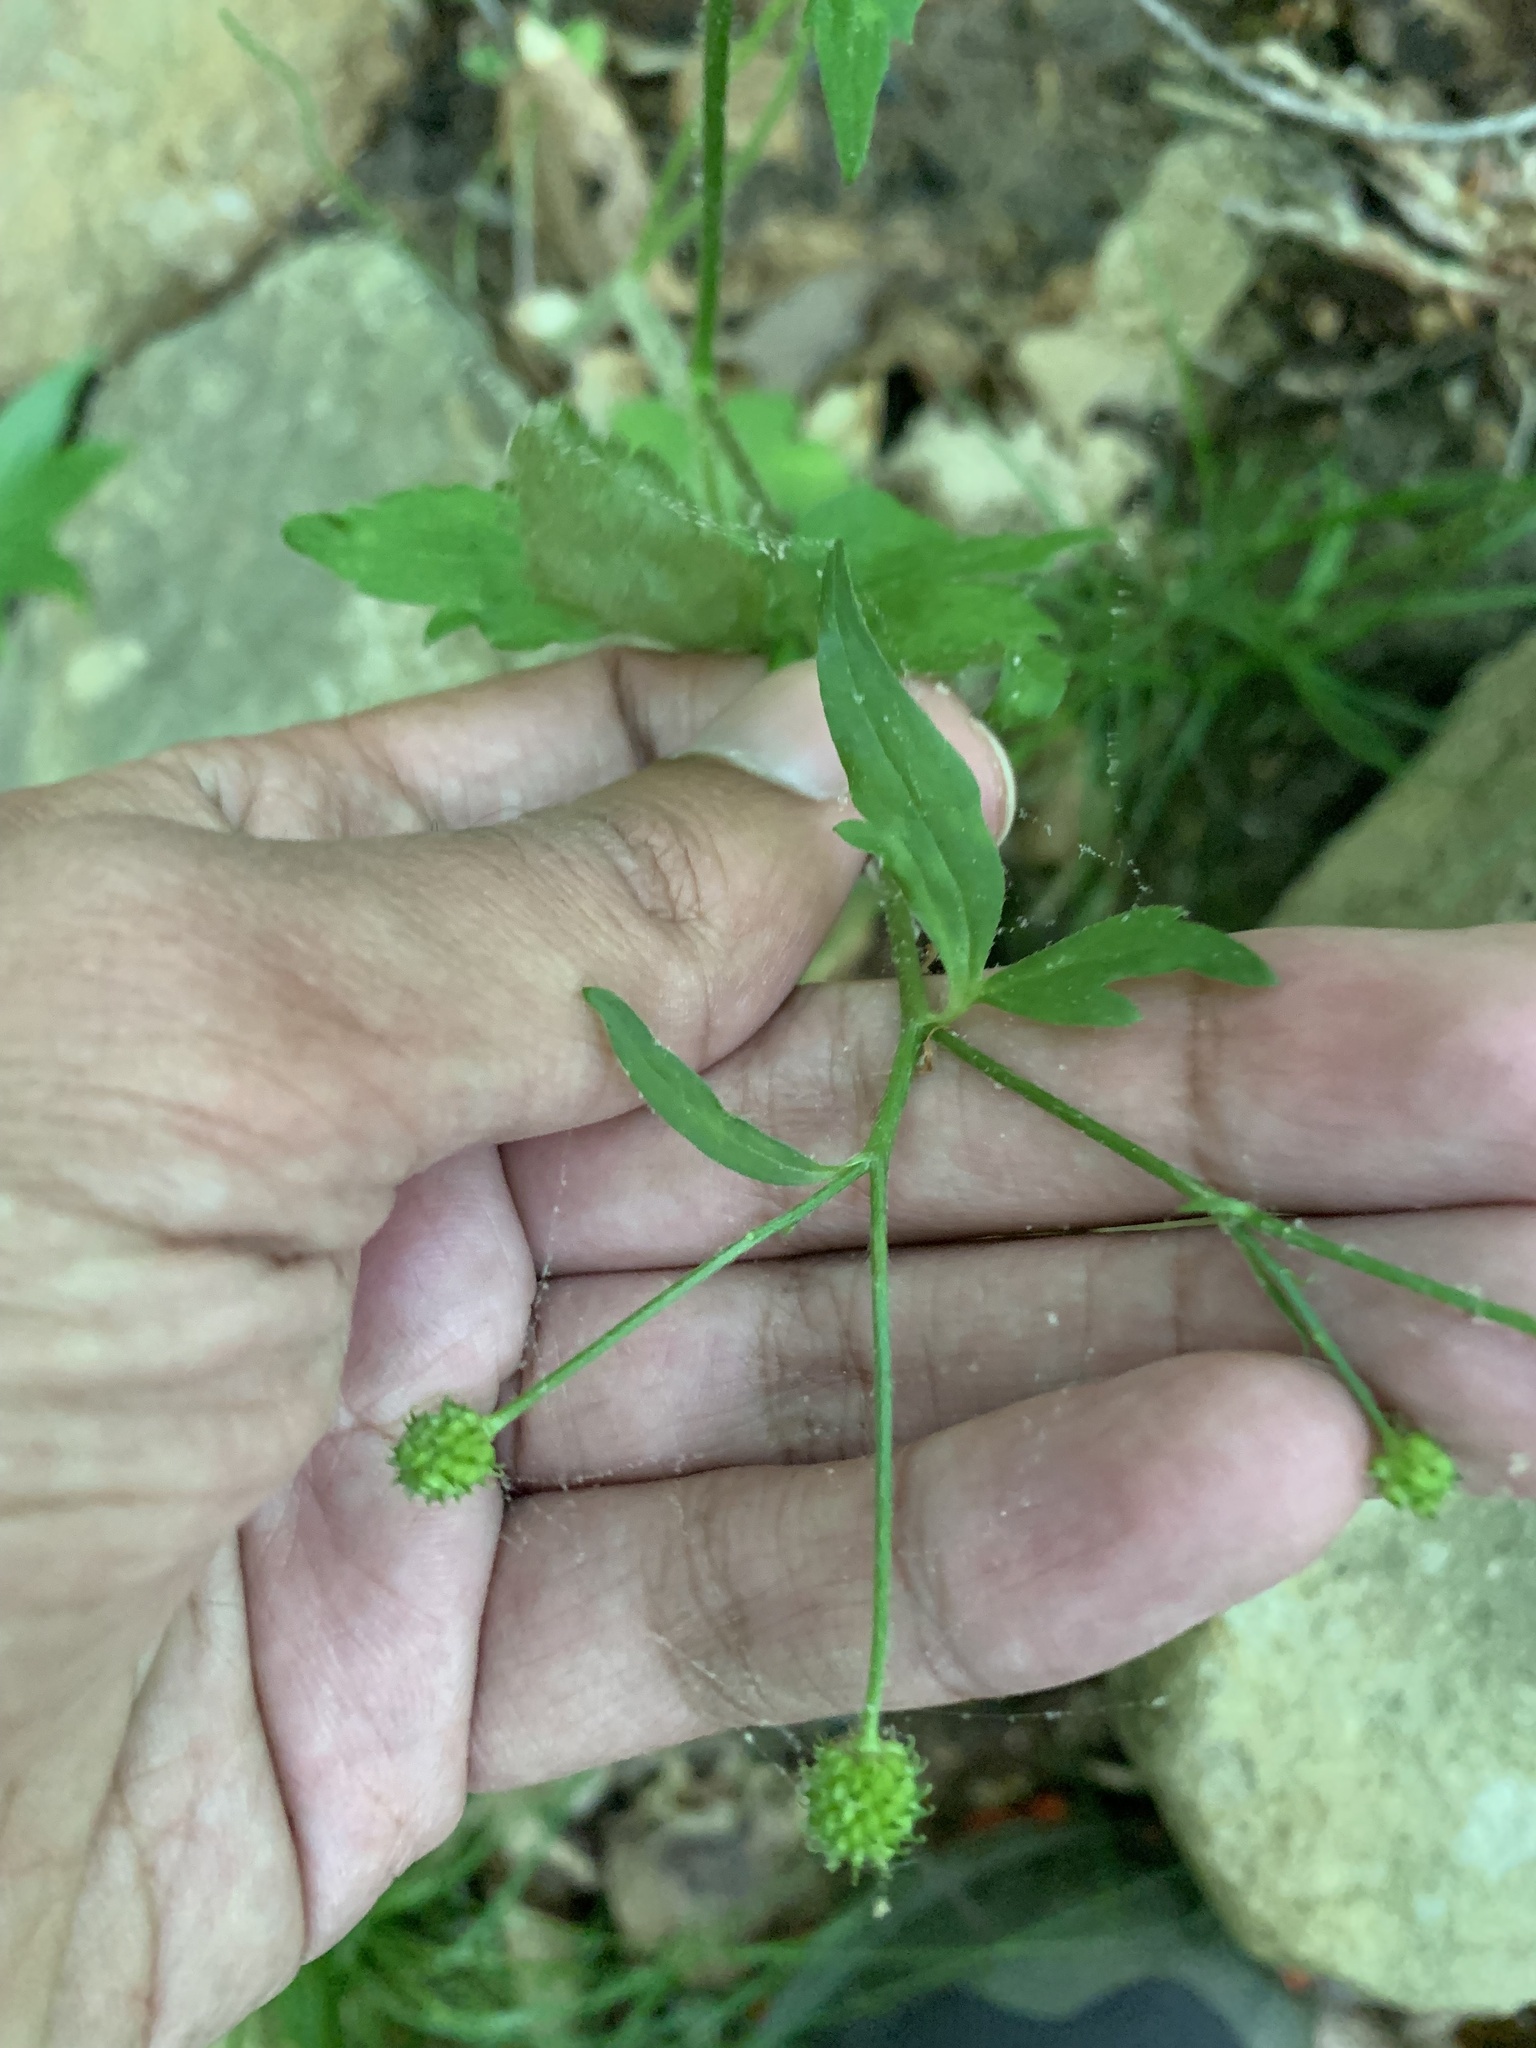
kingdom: Plantae
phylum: Tracheophyta
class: Magnoliopsida
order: Ranunculales
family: Ranunculaceae
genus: Ranunculus
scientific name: Ranunculus recurvatus
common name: Blisterwort
